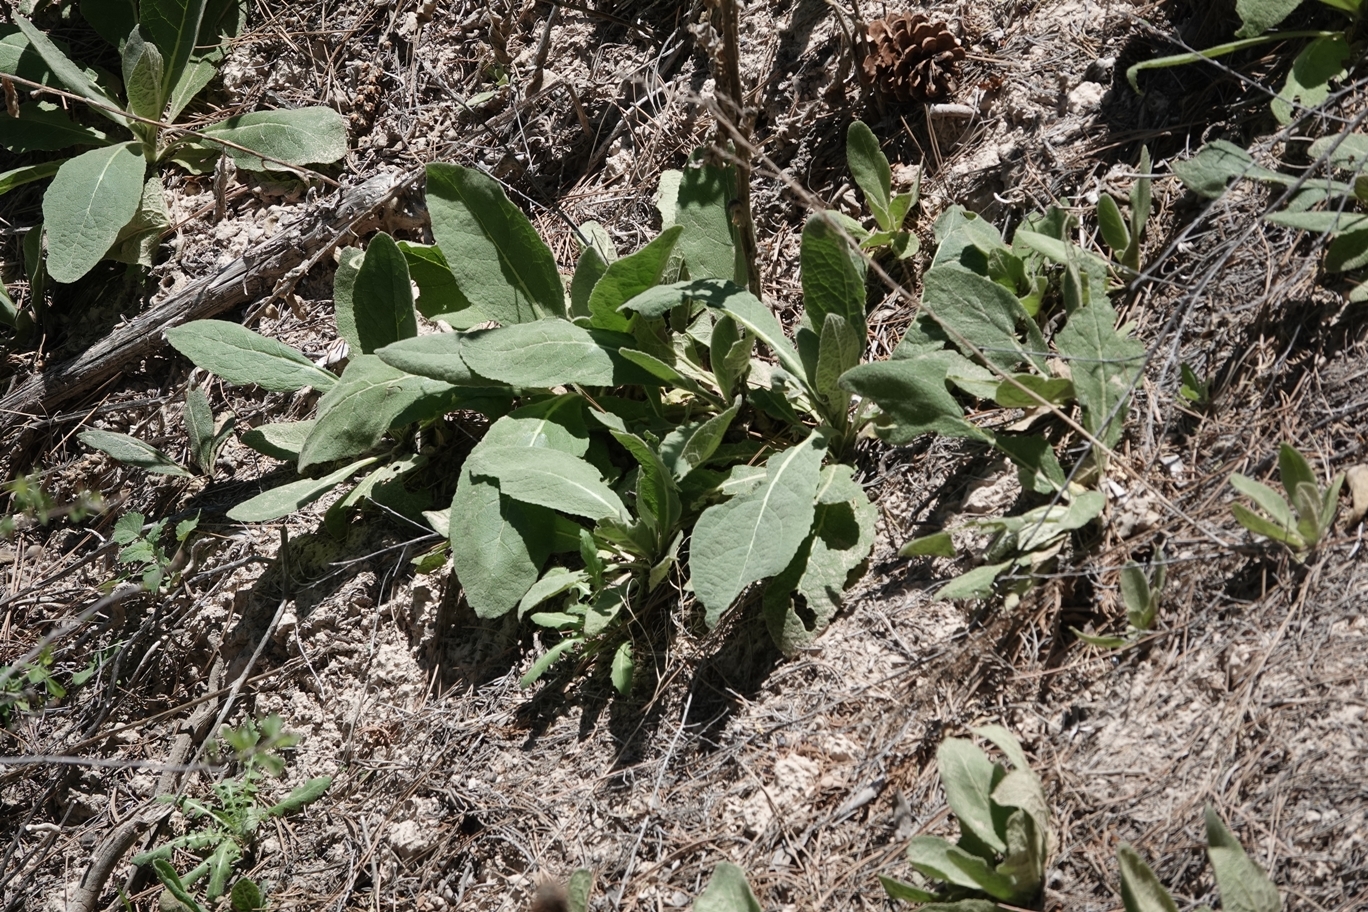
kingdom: Plantae
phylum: Tracheophyta
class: Magnoliopsida
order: Lamiales
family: Scrophulariaceae
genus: Verbascum
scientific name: Verbascum thapsus
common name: Common mullein
